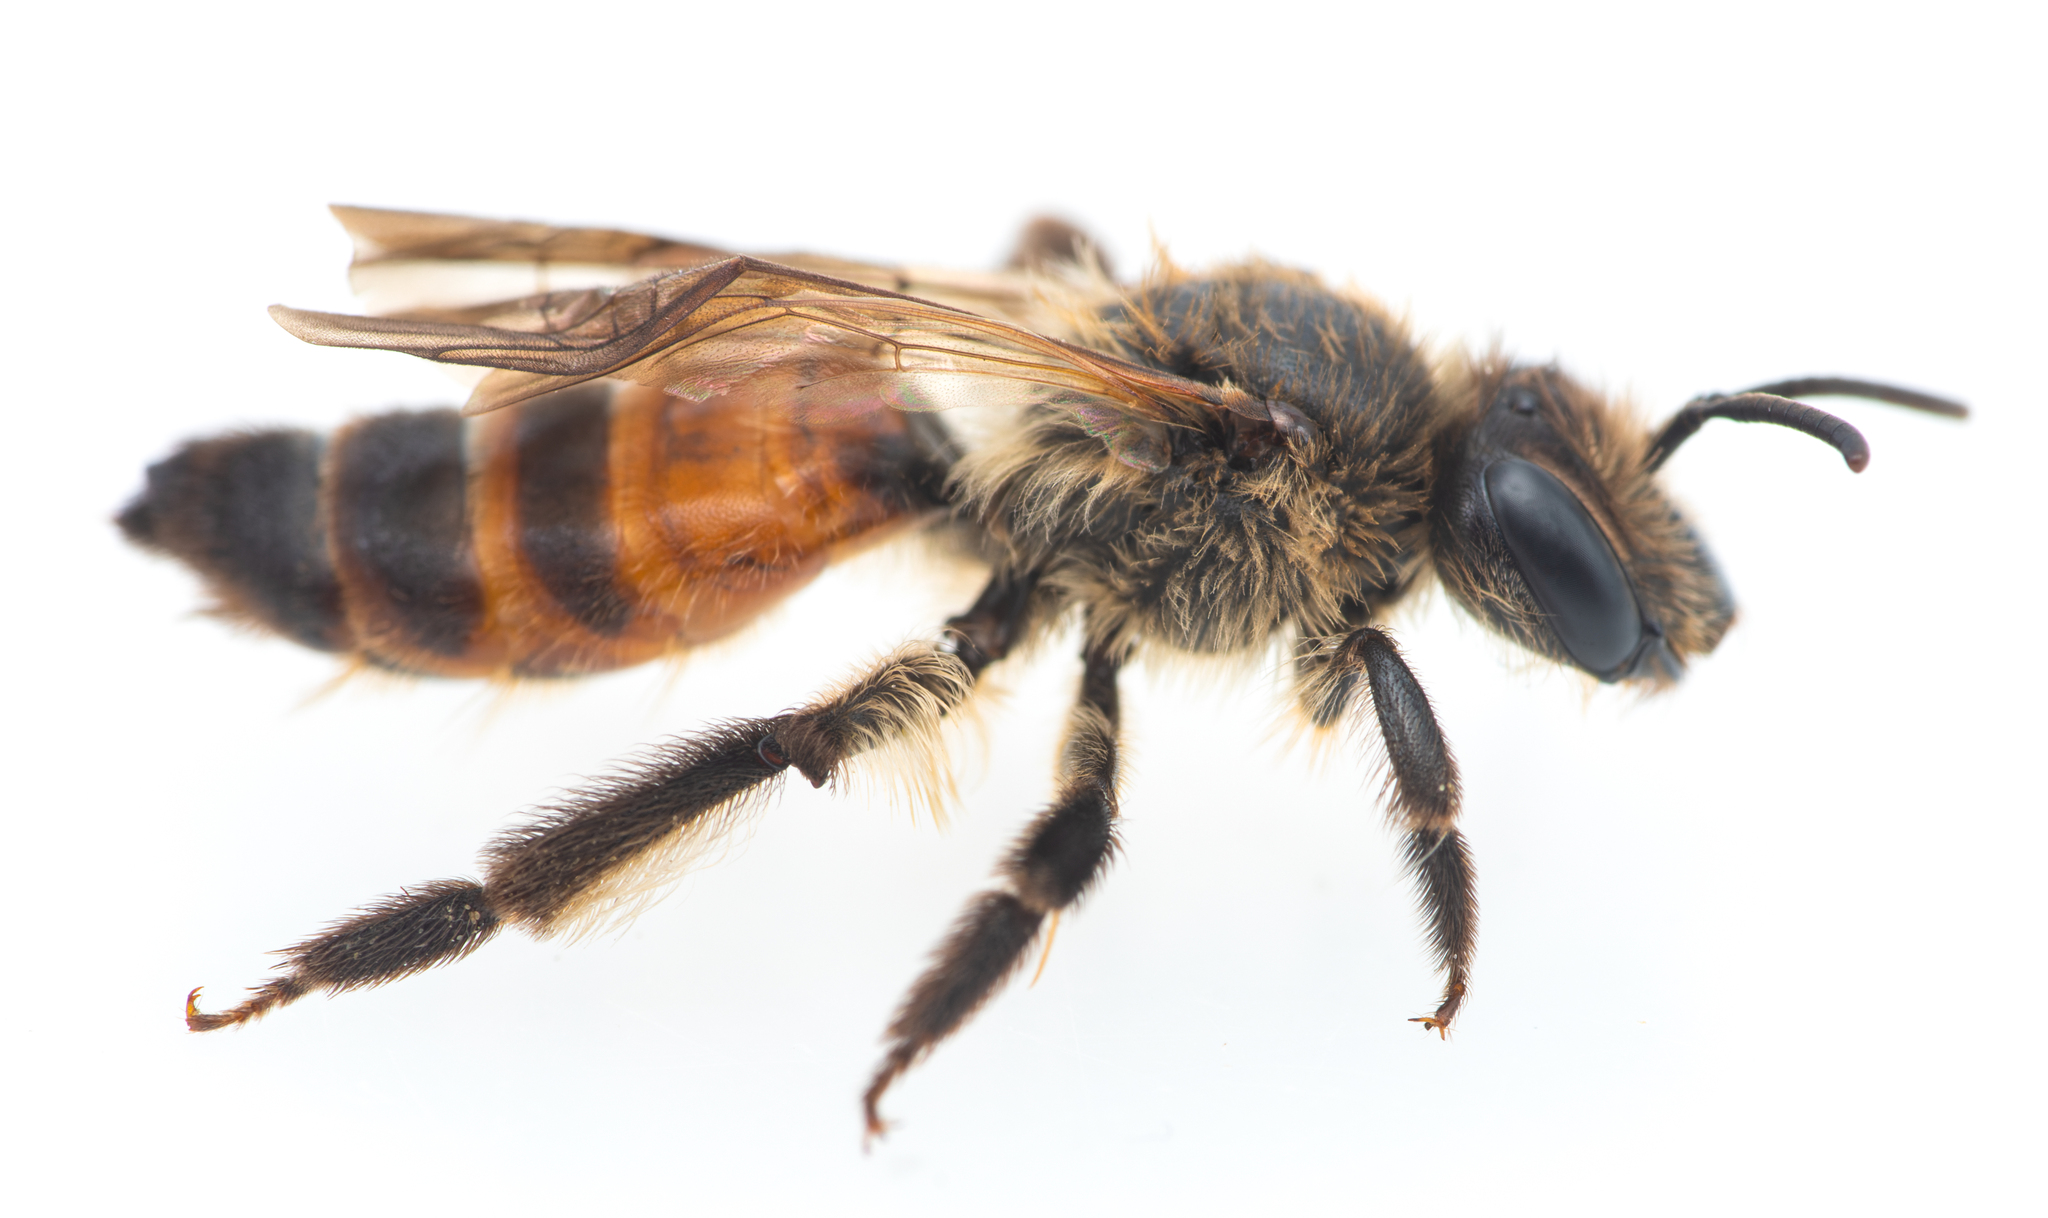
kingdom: Animalia
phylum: Arthropoda
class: Insecta
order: Hymenoptera
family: Andrenidae
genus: Andrena
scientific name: Andrena rosae
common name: Perkin's mining bee
